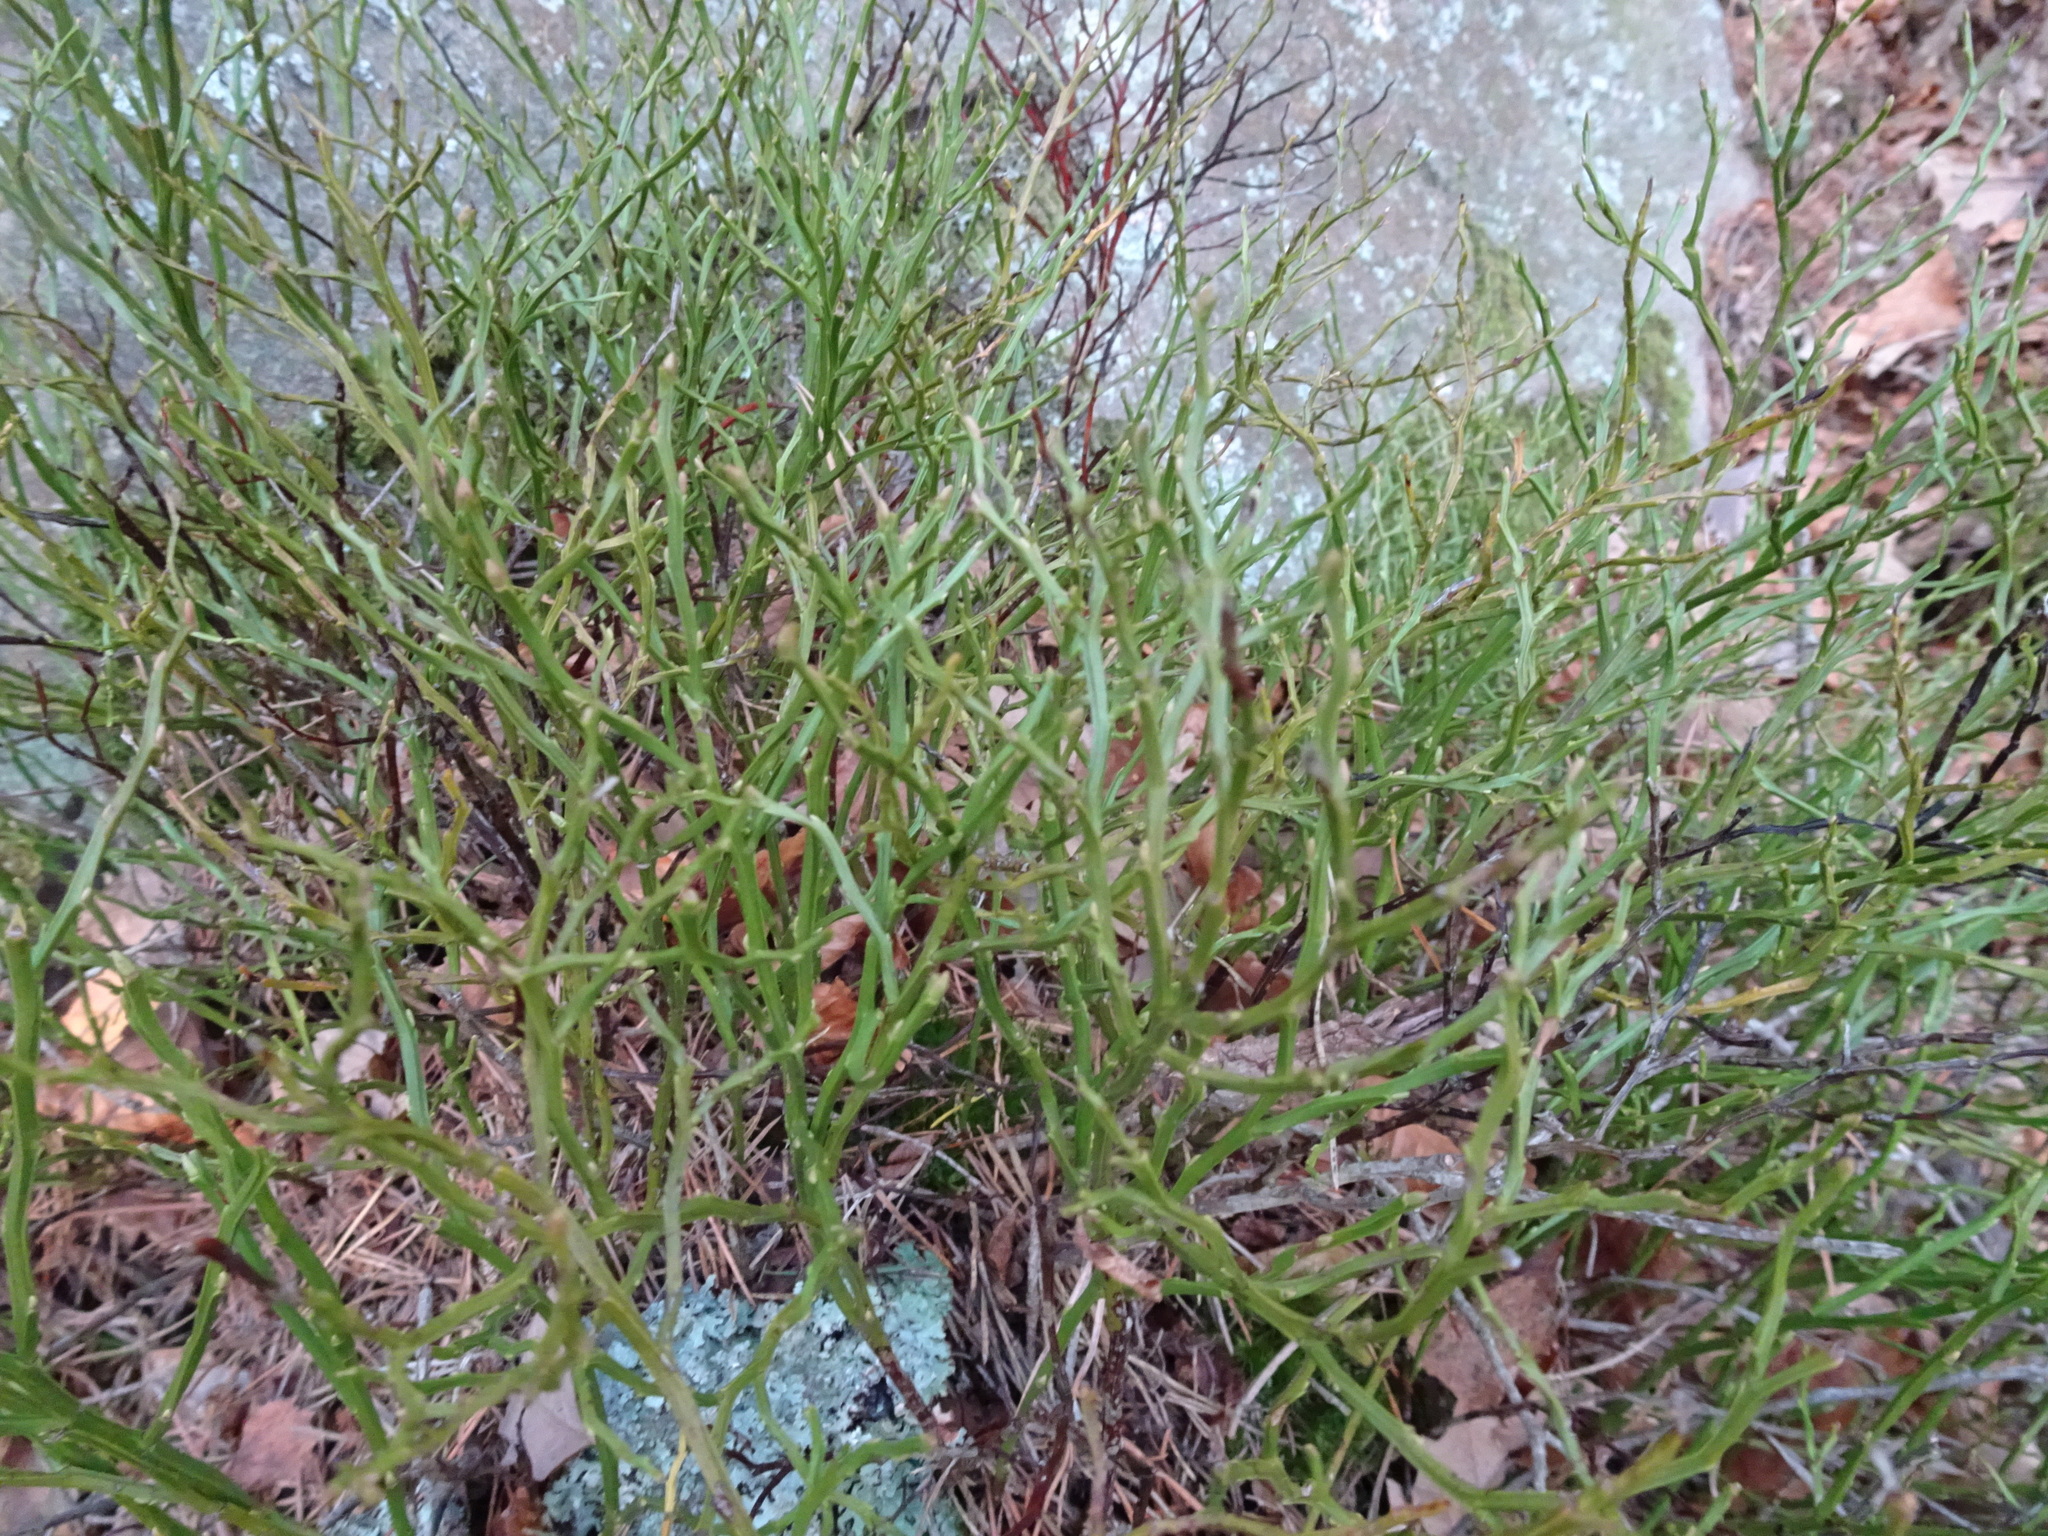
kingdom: Plantae
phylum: Tracheophyta
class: Magnoliopsida
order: Ericales
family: Ericaceae
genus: Vaccinium
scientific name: Vaccinium myrtillus
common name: Bilberry
